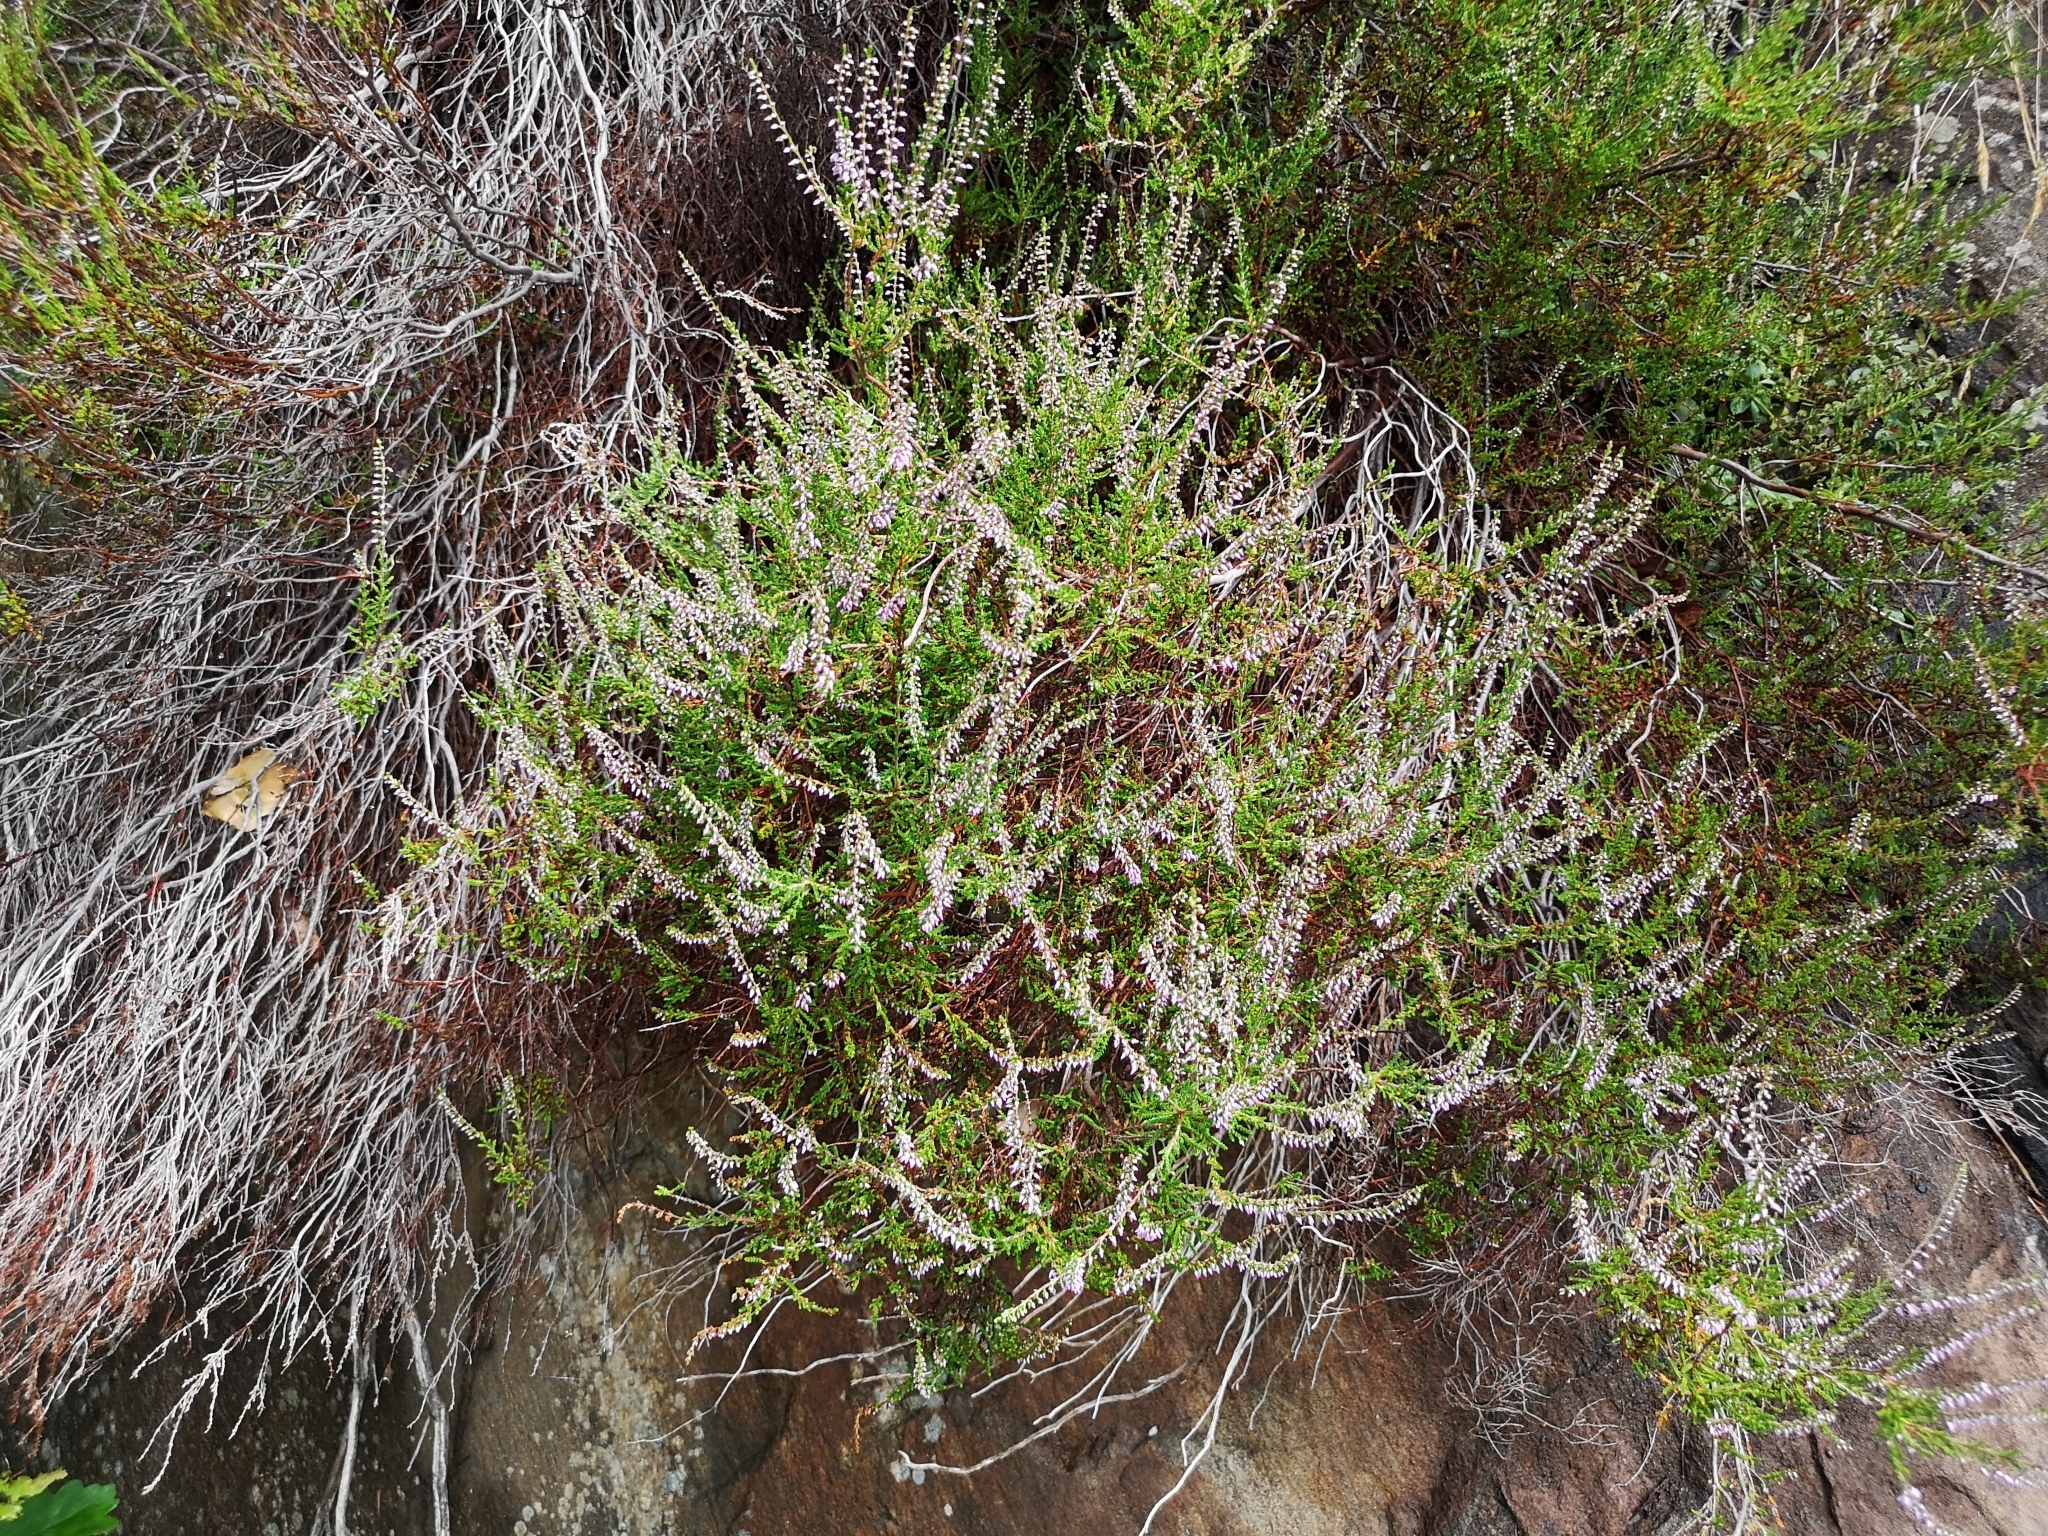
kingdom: Plantae
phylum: Tracheophyta
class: Magnoliopsida
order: Ericales
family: Ericaceae
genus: Calluna
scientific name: Calluna vulgaris
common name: Heather
